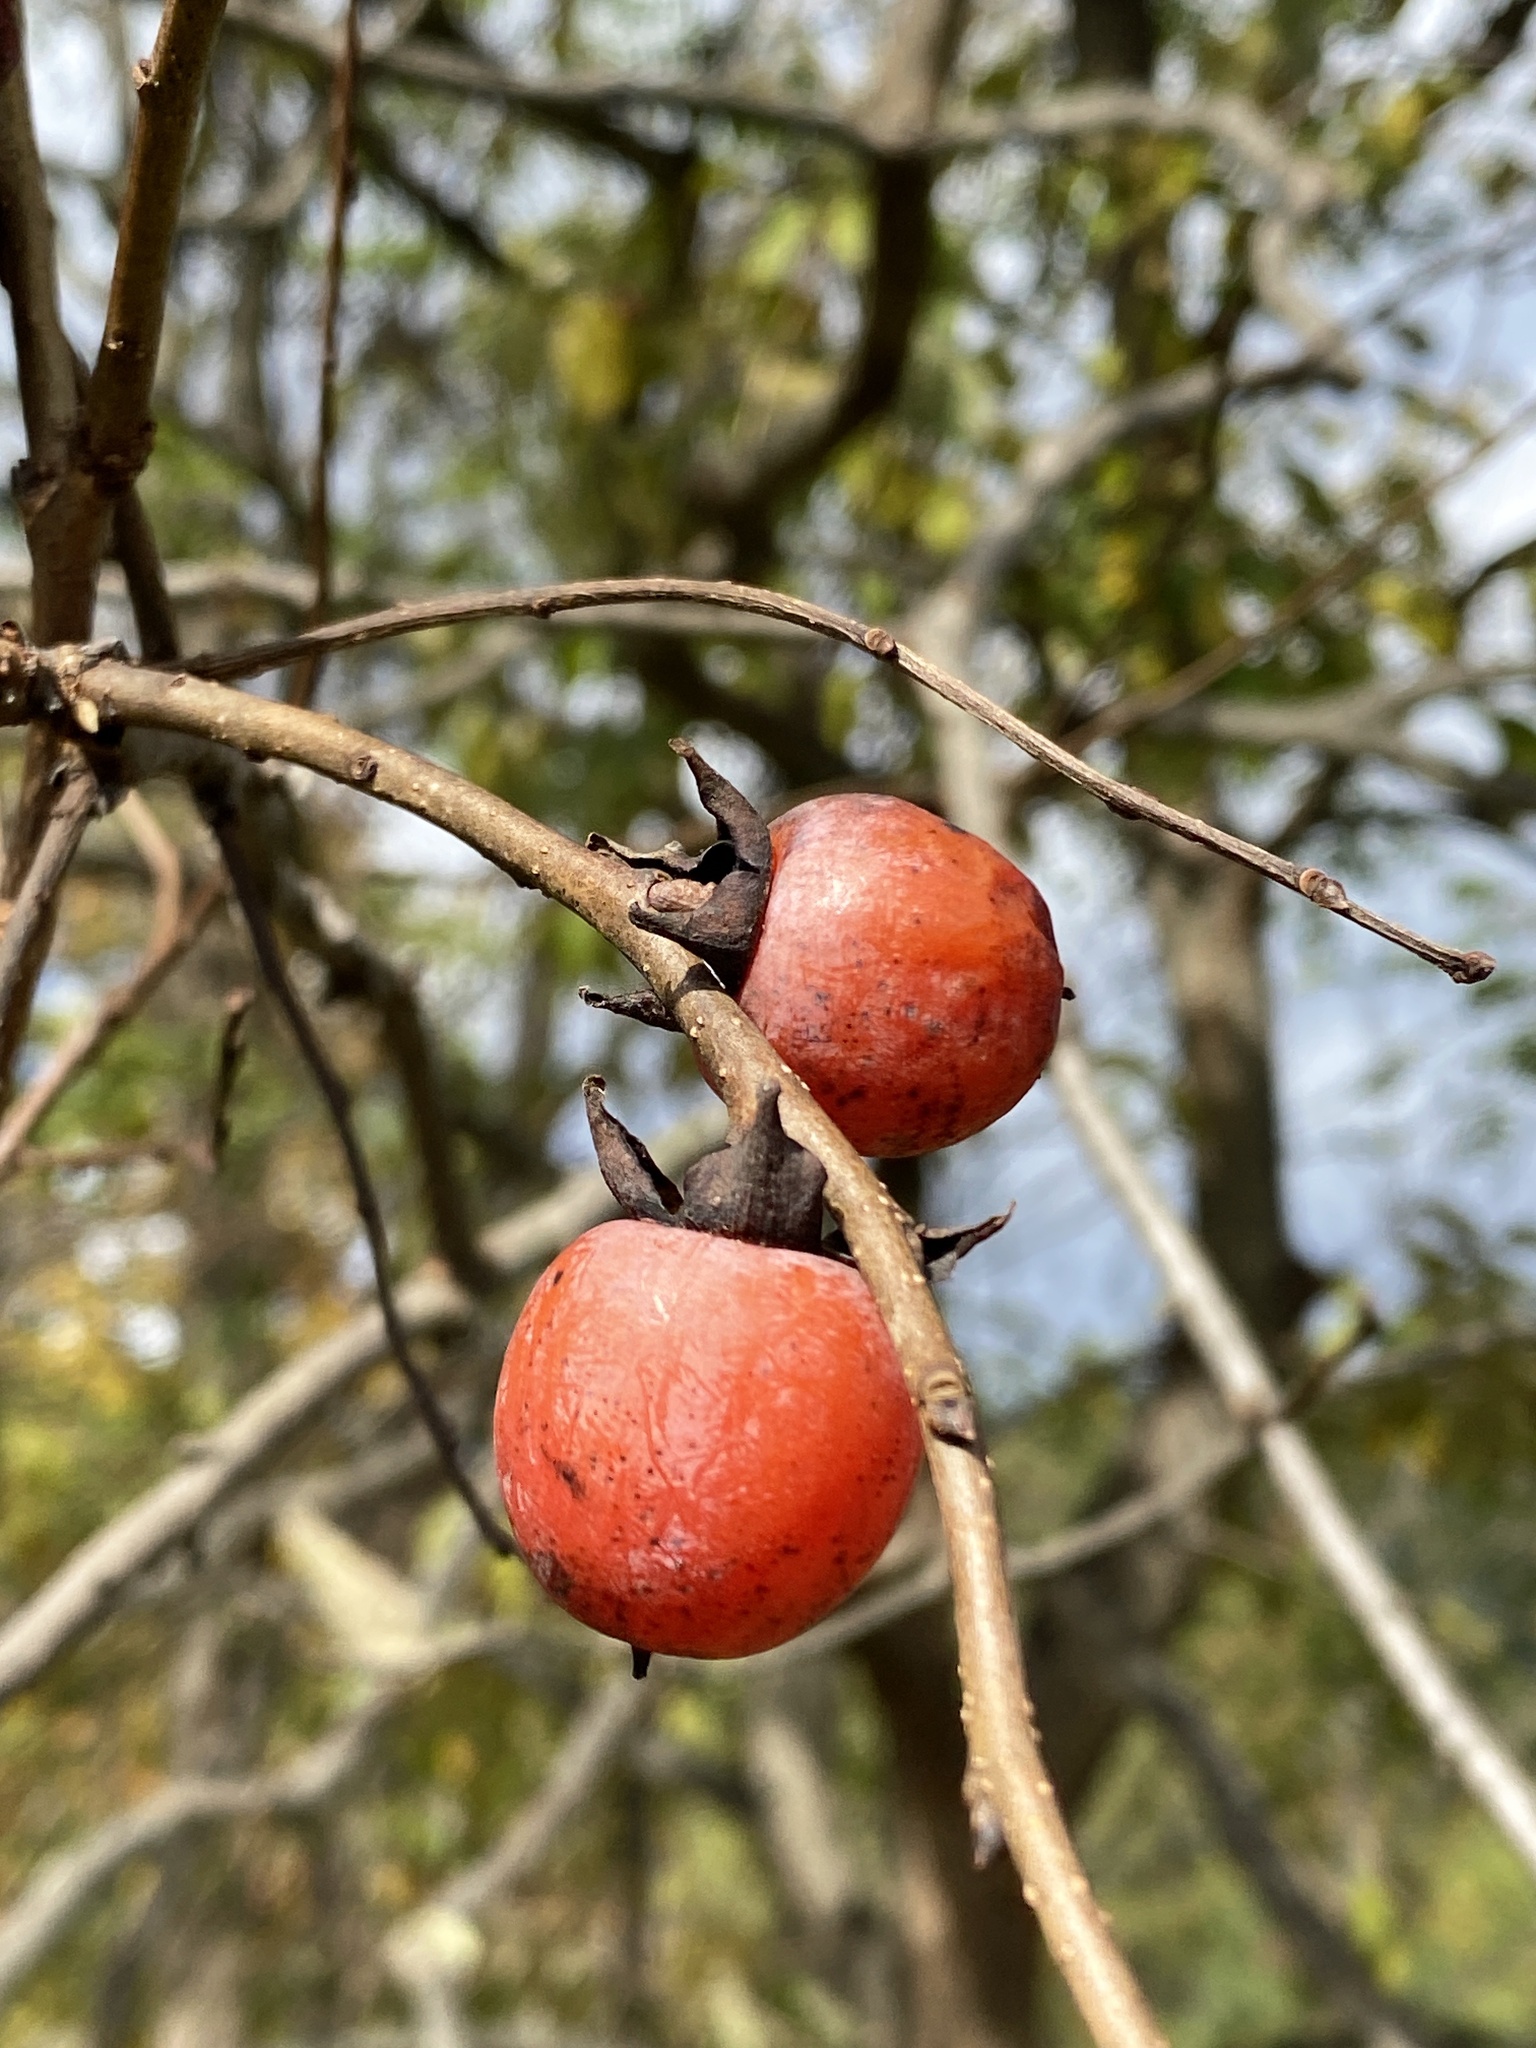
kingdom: Plantae
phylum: Tracheophyta
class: Magnoliopsida
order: Ericales
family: Ebenaceae
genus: Diospyros
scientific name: Diospyros virginiana
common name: Persimmon
